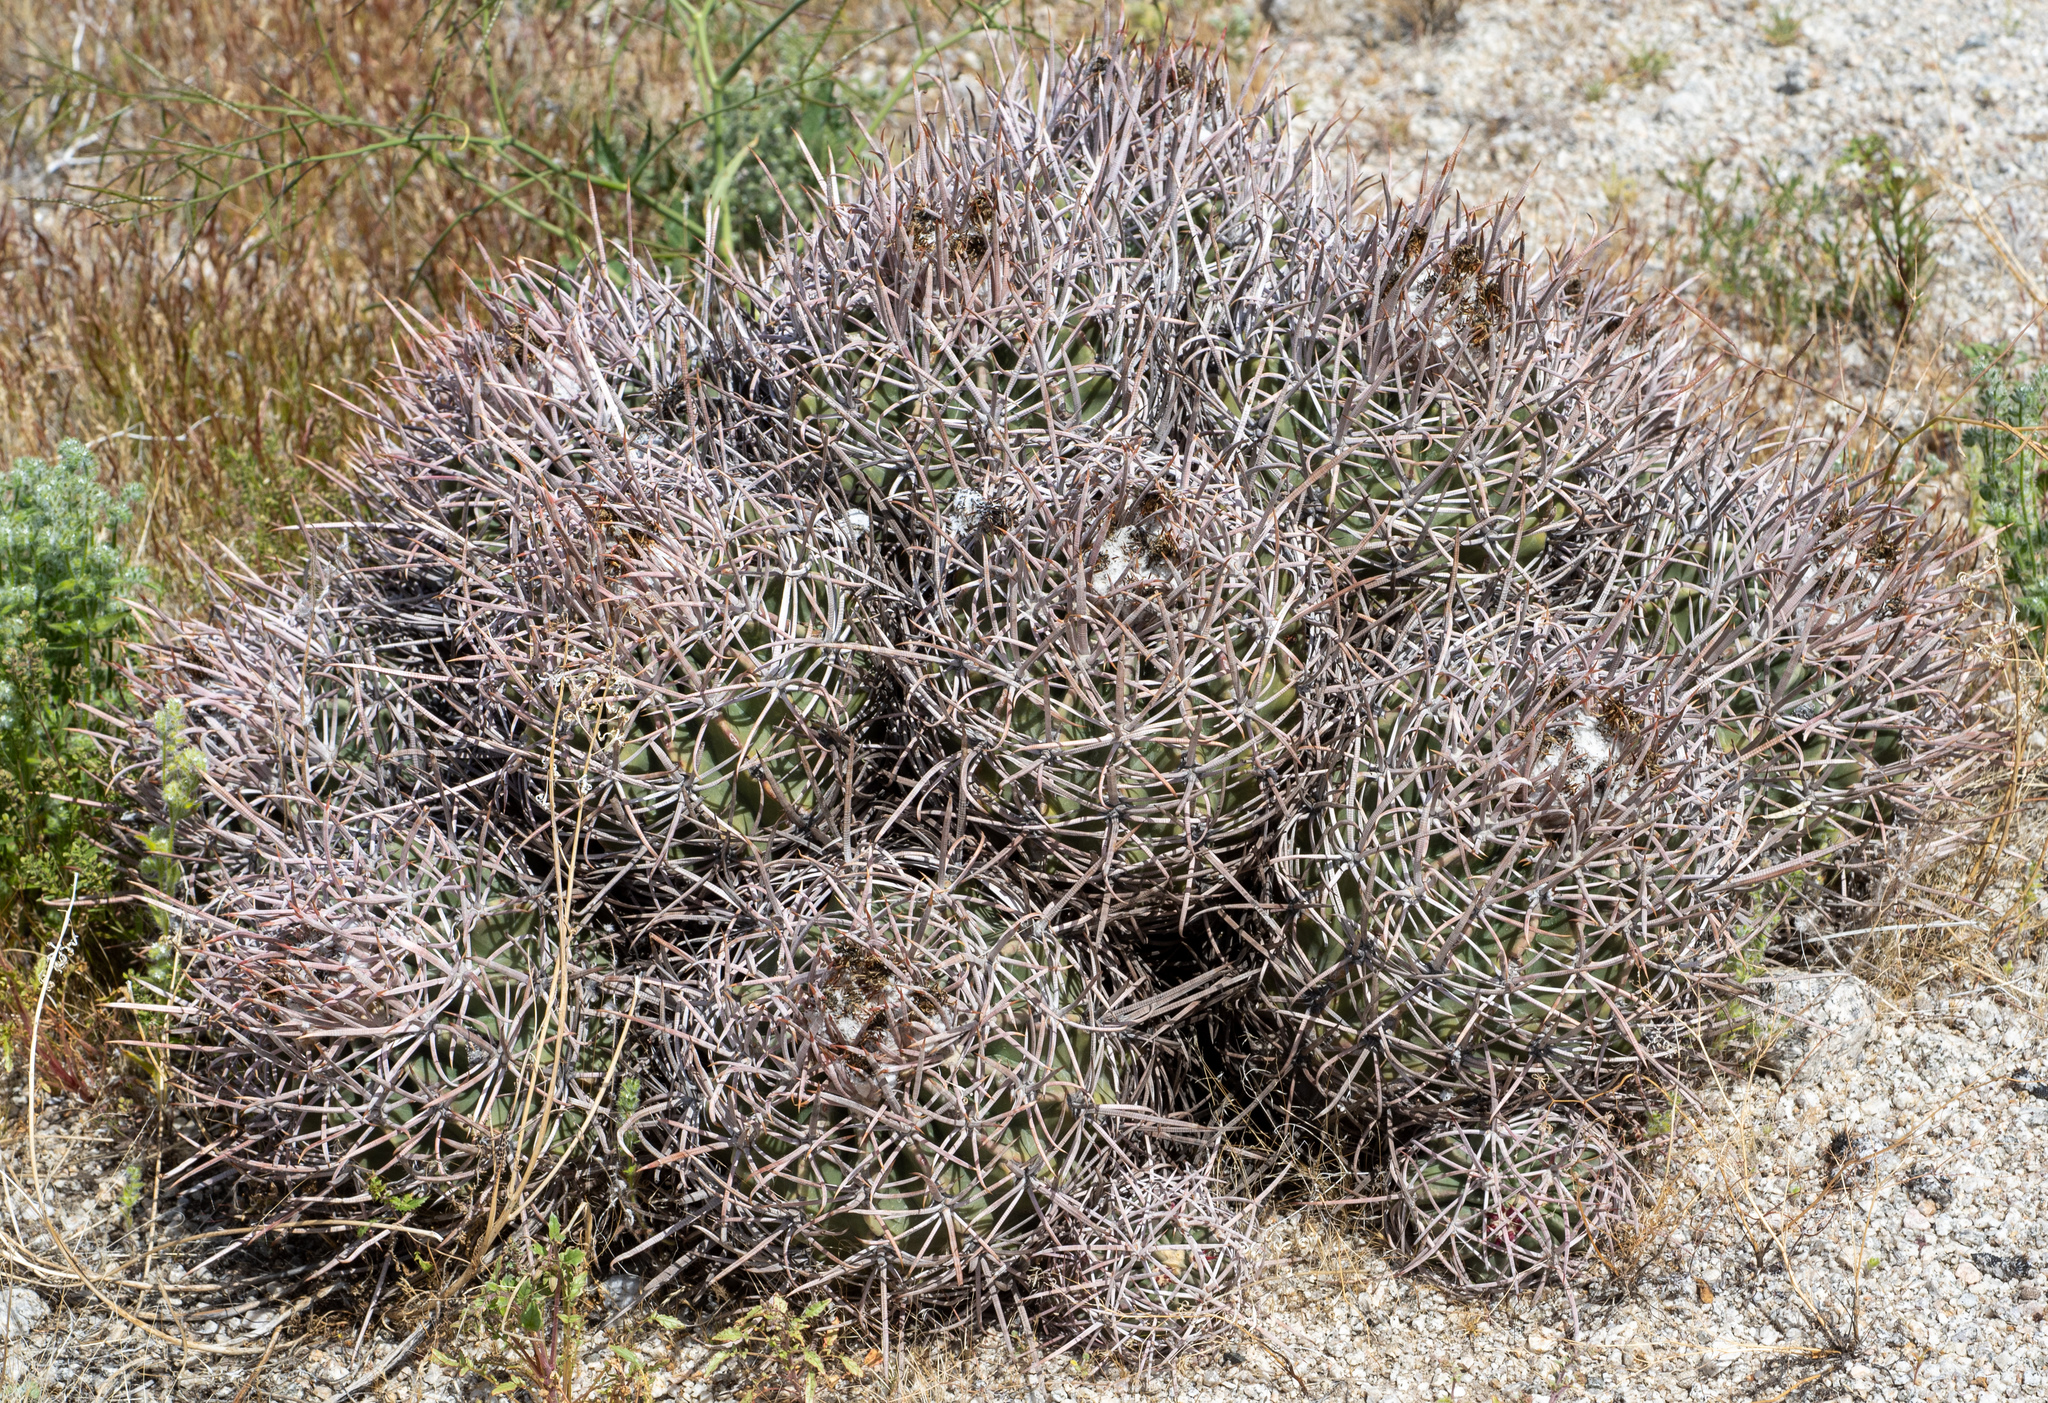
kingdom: Plantae
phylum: Tracheophyta
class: Magnoliopsida
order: Caryophyllales
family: Cactaceae
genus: Echinocactus
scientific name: Echinocactus polycephalus
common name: Cottontop cactus
